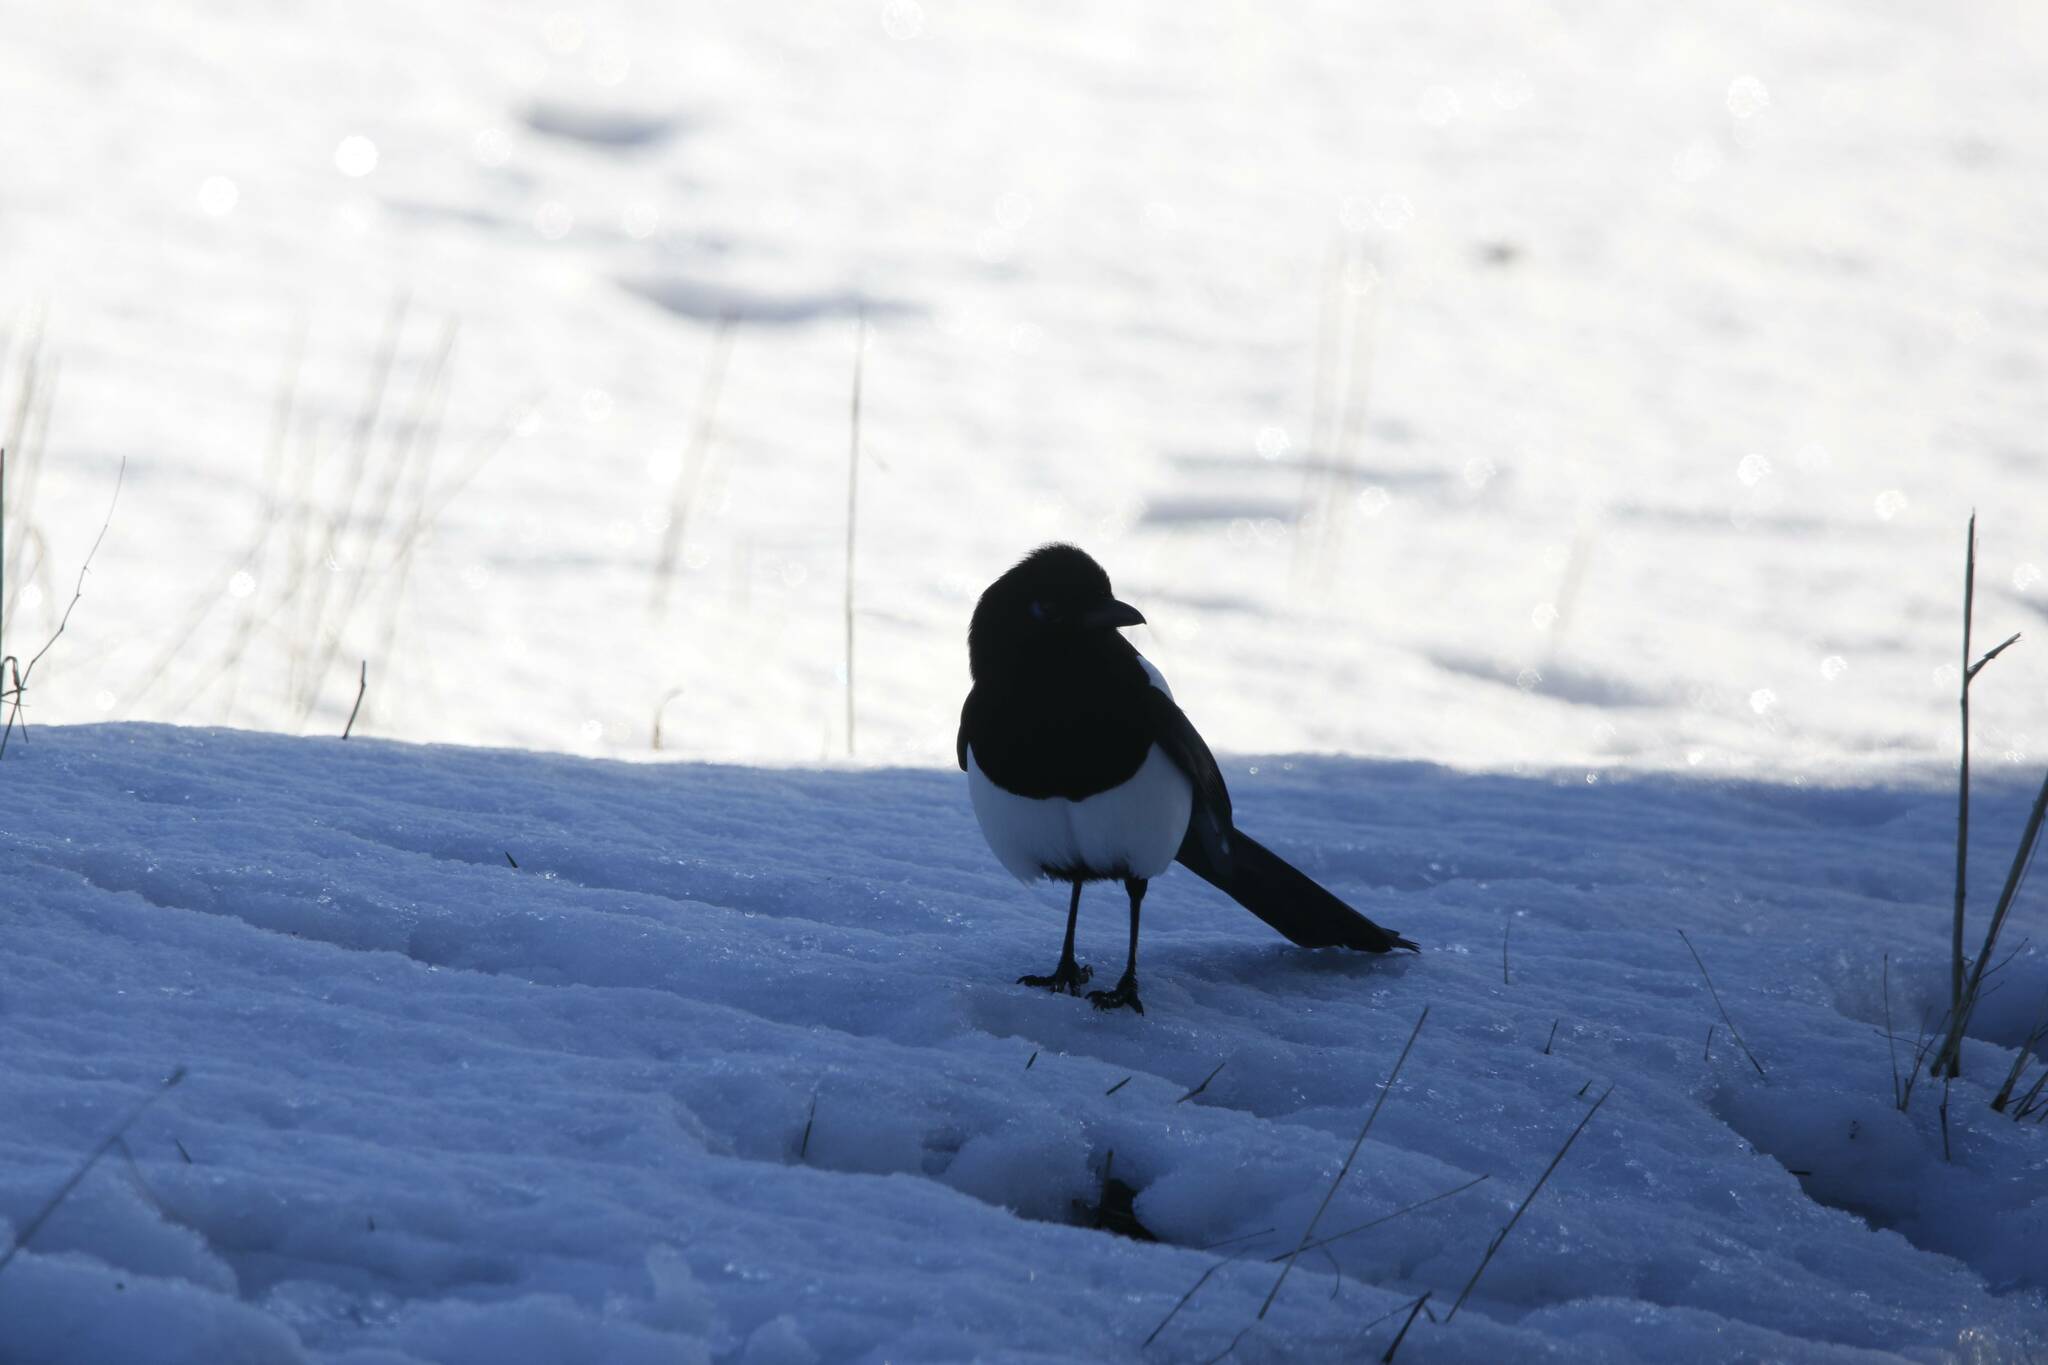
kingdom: Animalia
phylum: Chordata
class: Aves
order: Passeriformes
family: Corvidae
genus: Pica
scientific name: Pica mauritanica
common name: Maghreb magpie
